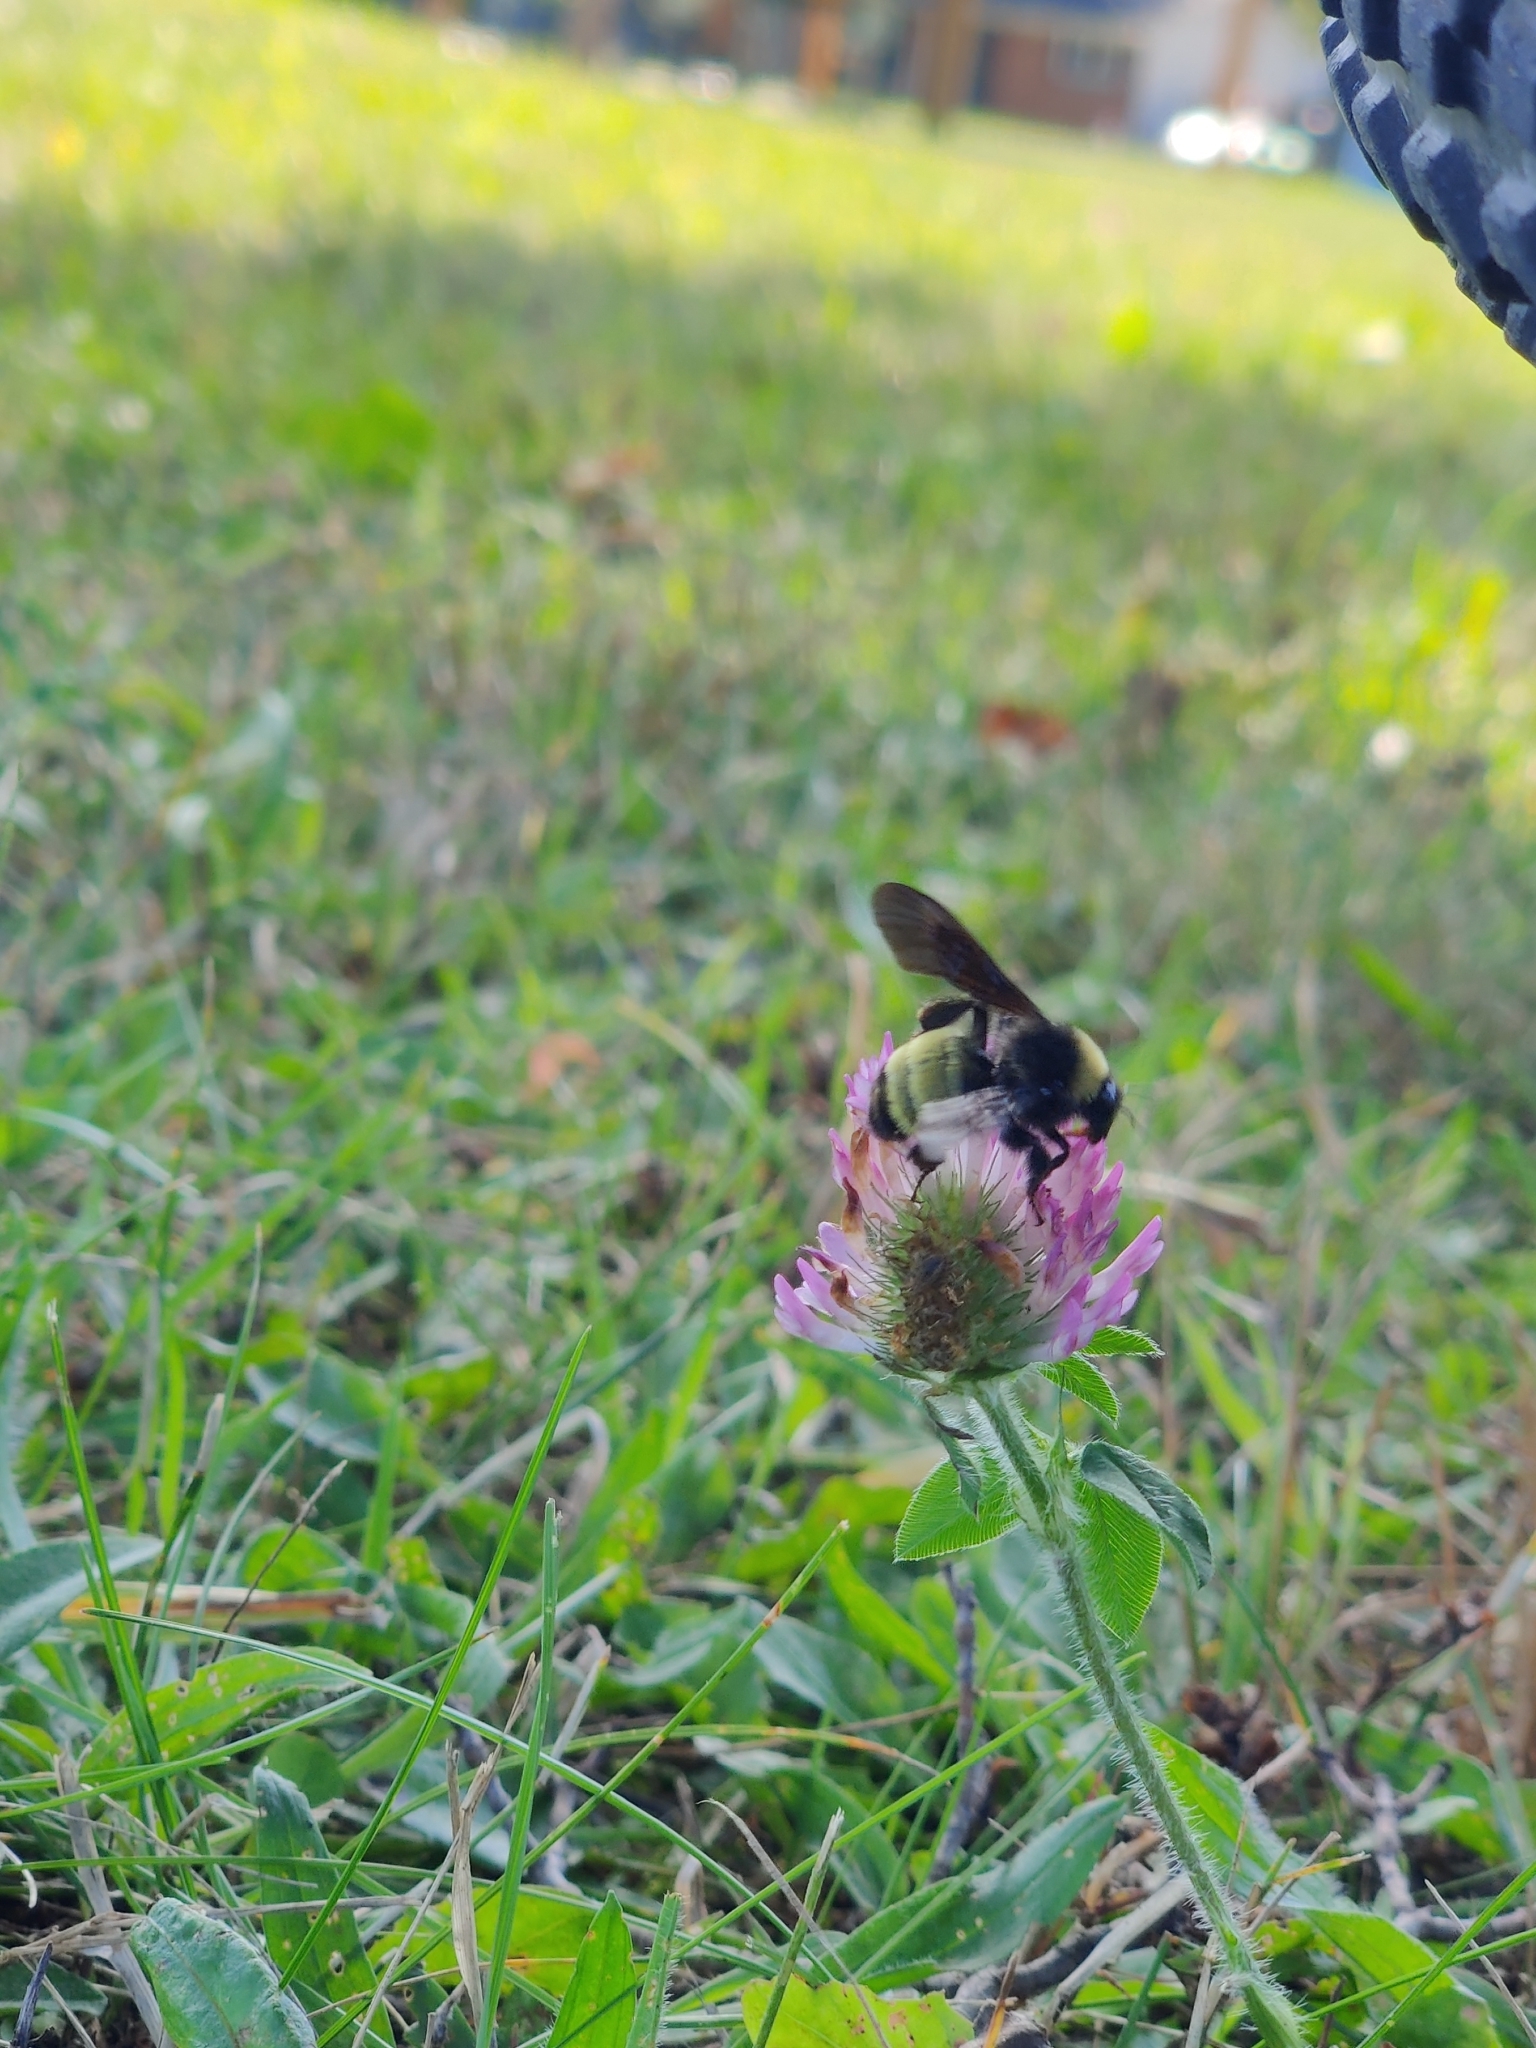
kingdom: Animalia
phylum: Arthropoda
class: Insecta
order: Hymenoptera
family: Apidae
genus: Bombus
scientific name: Bombus pensylvanicus
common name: Bumble bee
